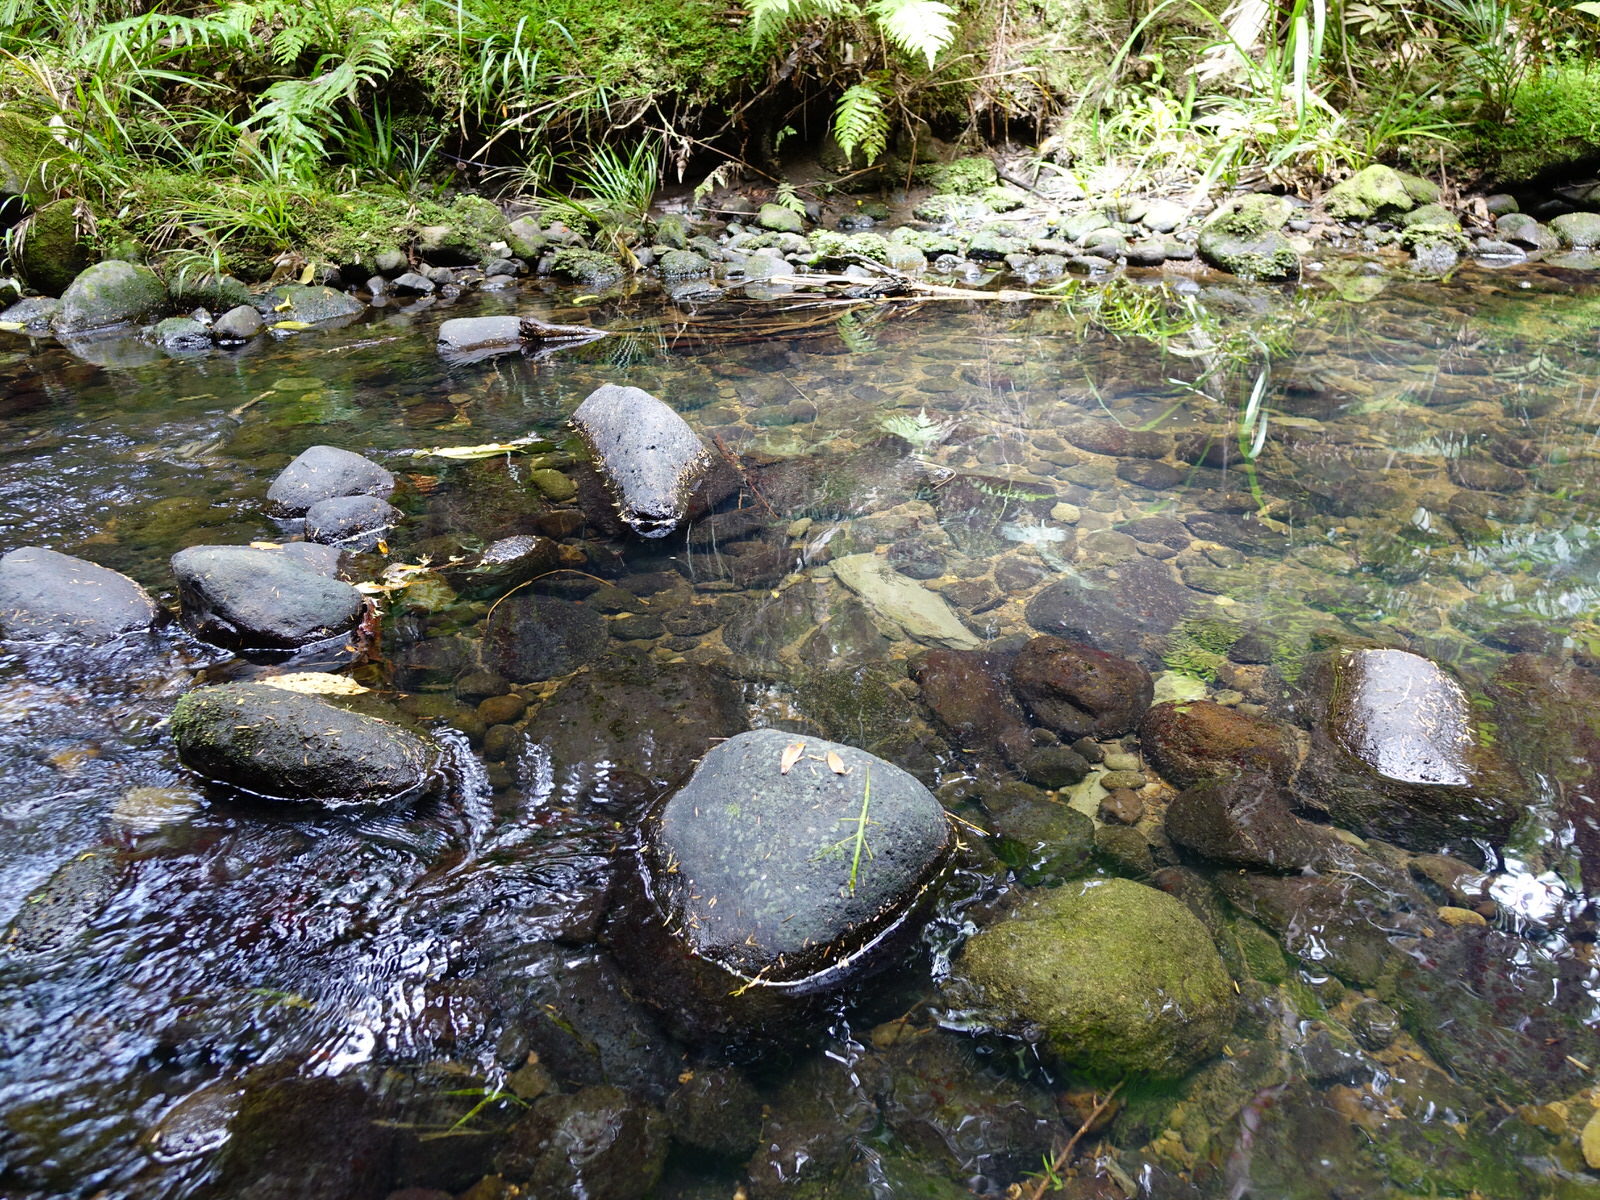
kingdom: Animalia
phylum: Arthropoda
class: Insecta
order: Phasmida
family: Phasmatidae
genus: Clitarchus
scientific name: Clitarchus hookeri
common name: Smooth stick insect
